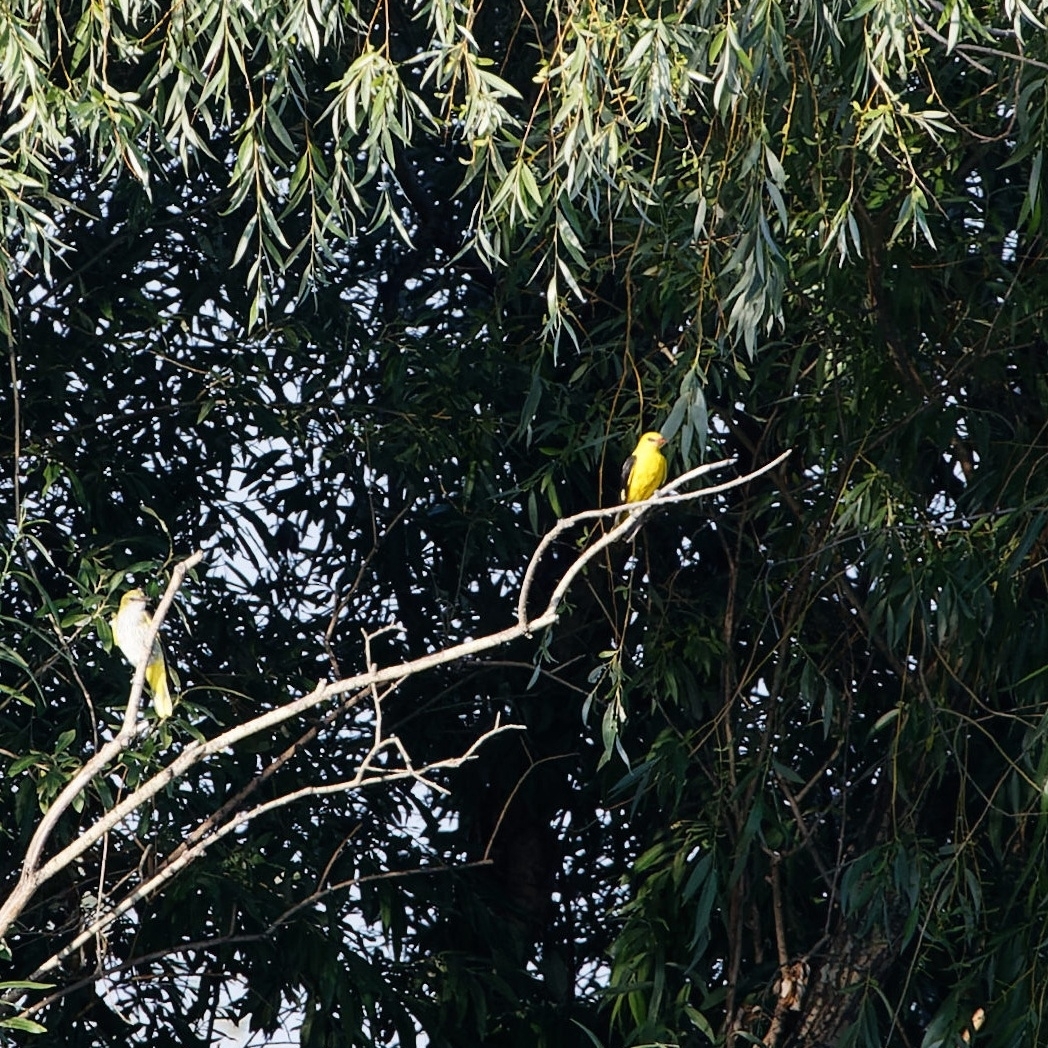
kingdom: Animalia
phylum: Chordata
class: Aves
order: Passeriformes
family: Oriolidae
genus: Oriolus
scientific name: Oriolus oriolus
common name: Eurasian golden oriole
